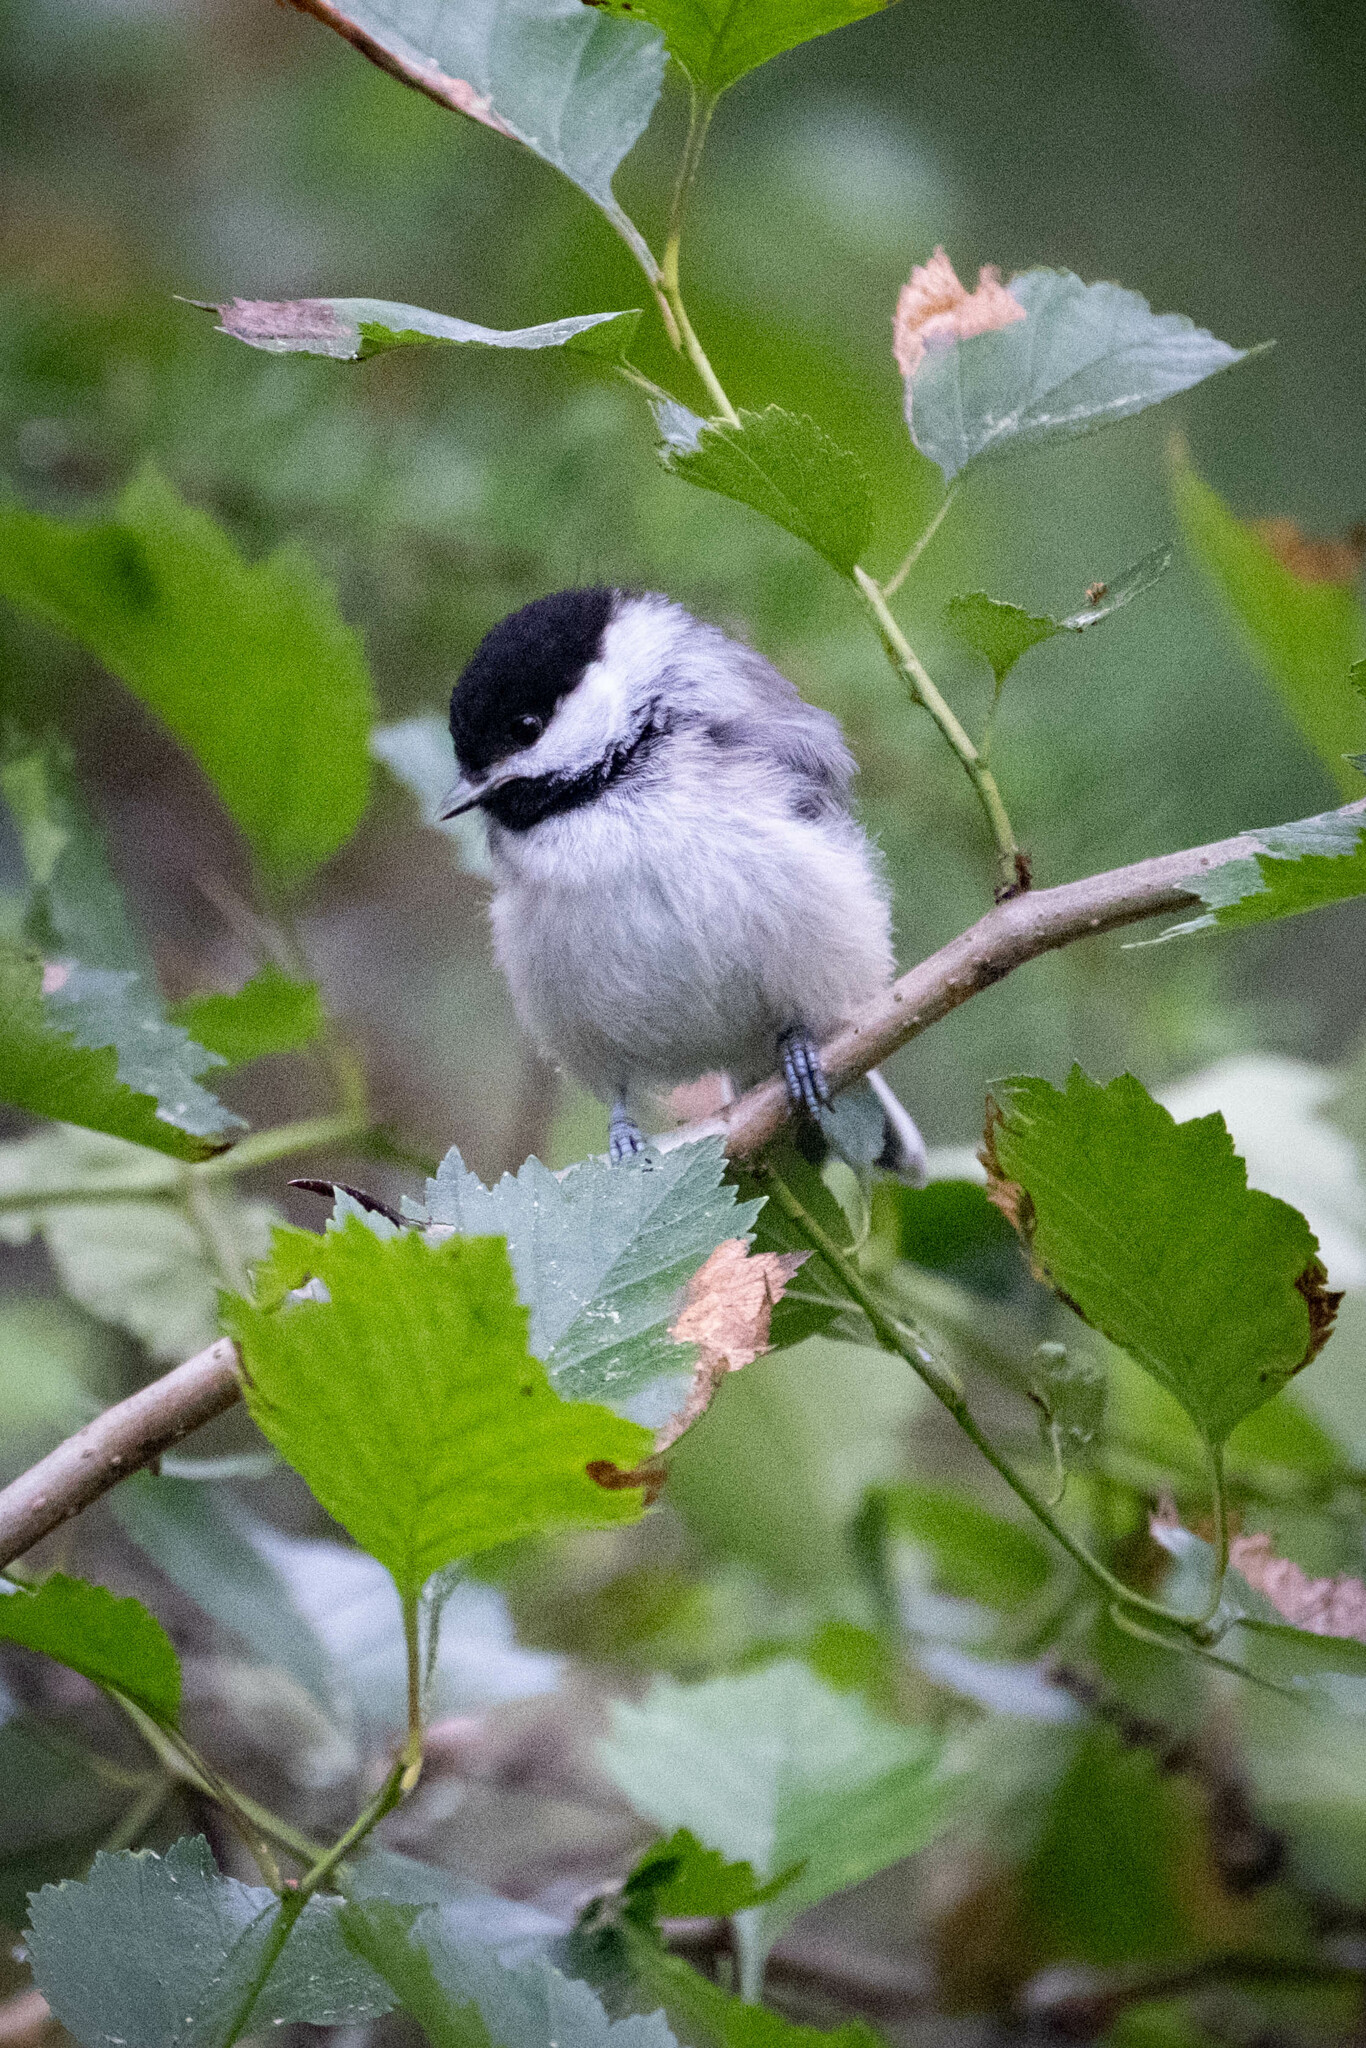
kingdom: Animalia
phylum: Chordata
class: Aves
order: Passeriformes
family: Paridae
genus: Poecile
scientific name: Poecile atricapillus
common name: Black-capped chickadee
